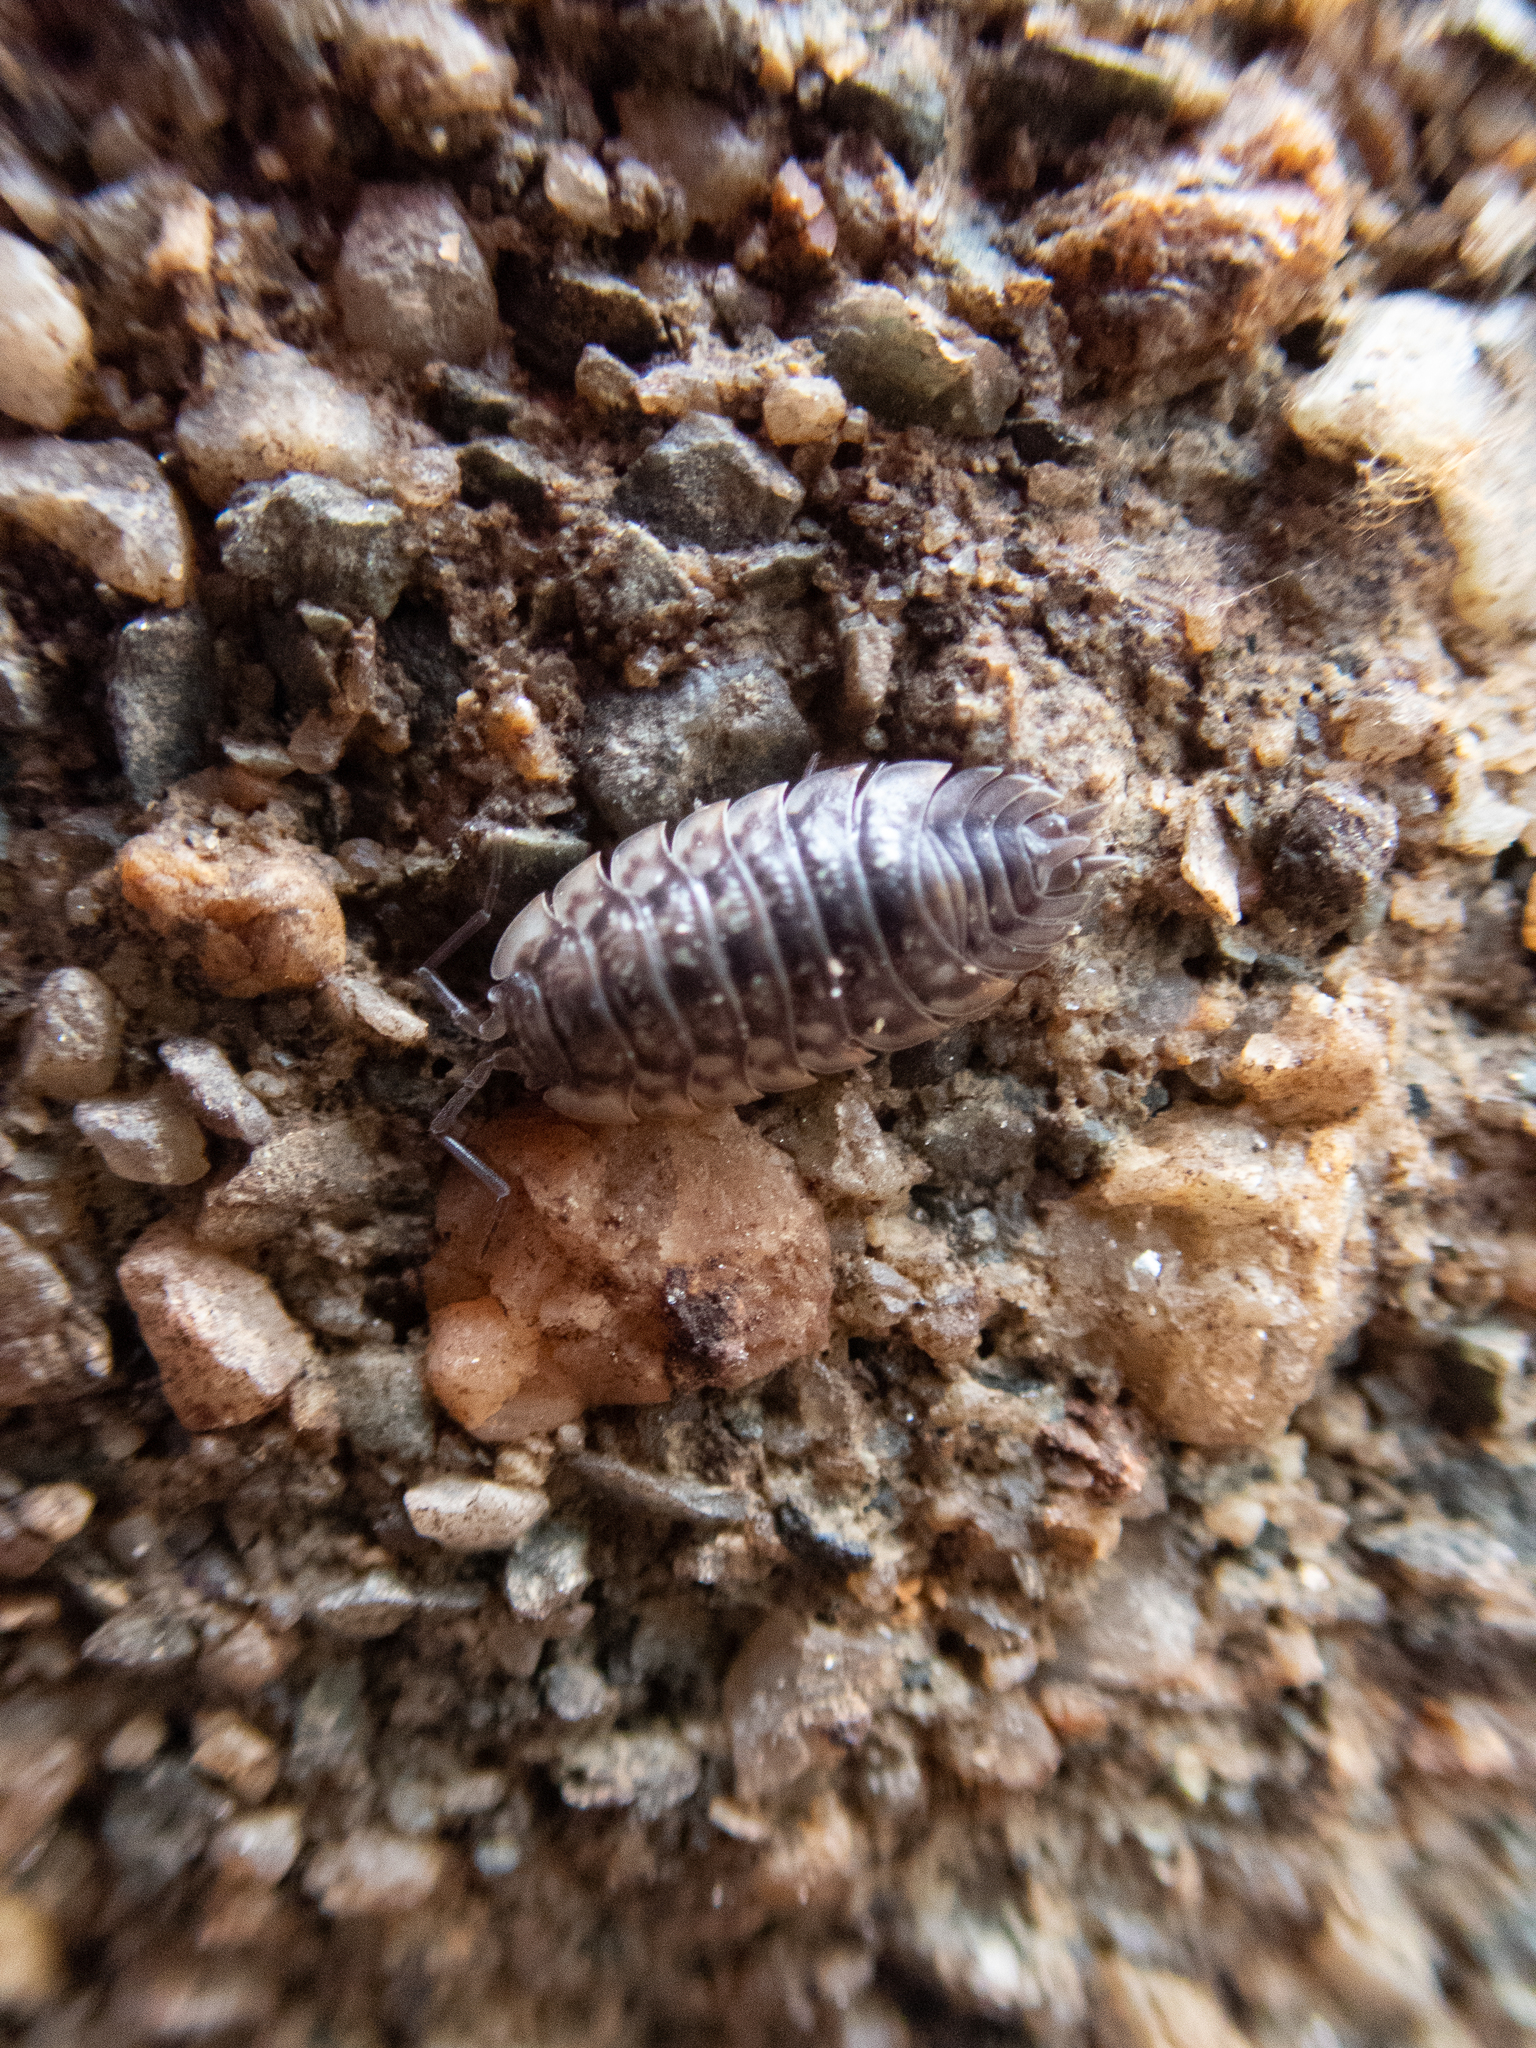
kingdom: Animalia
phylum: Arthropoda
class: Malacostraca
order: Isopoda
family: Oniscidae
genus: Oniscus
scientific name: Oniscus asellus
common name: Common shiny woodlouse
